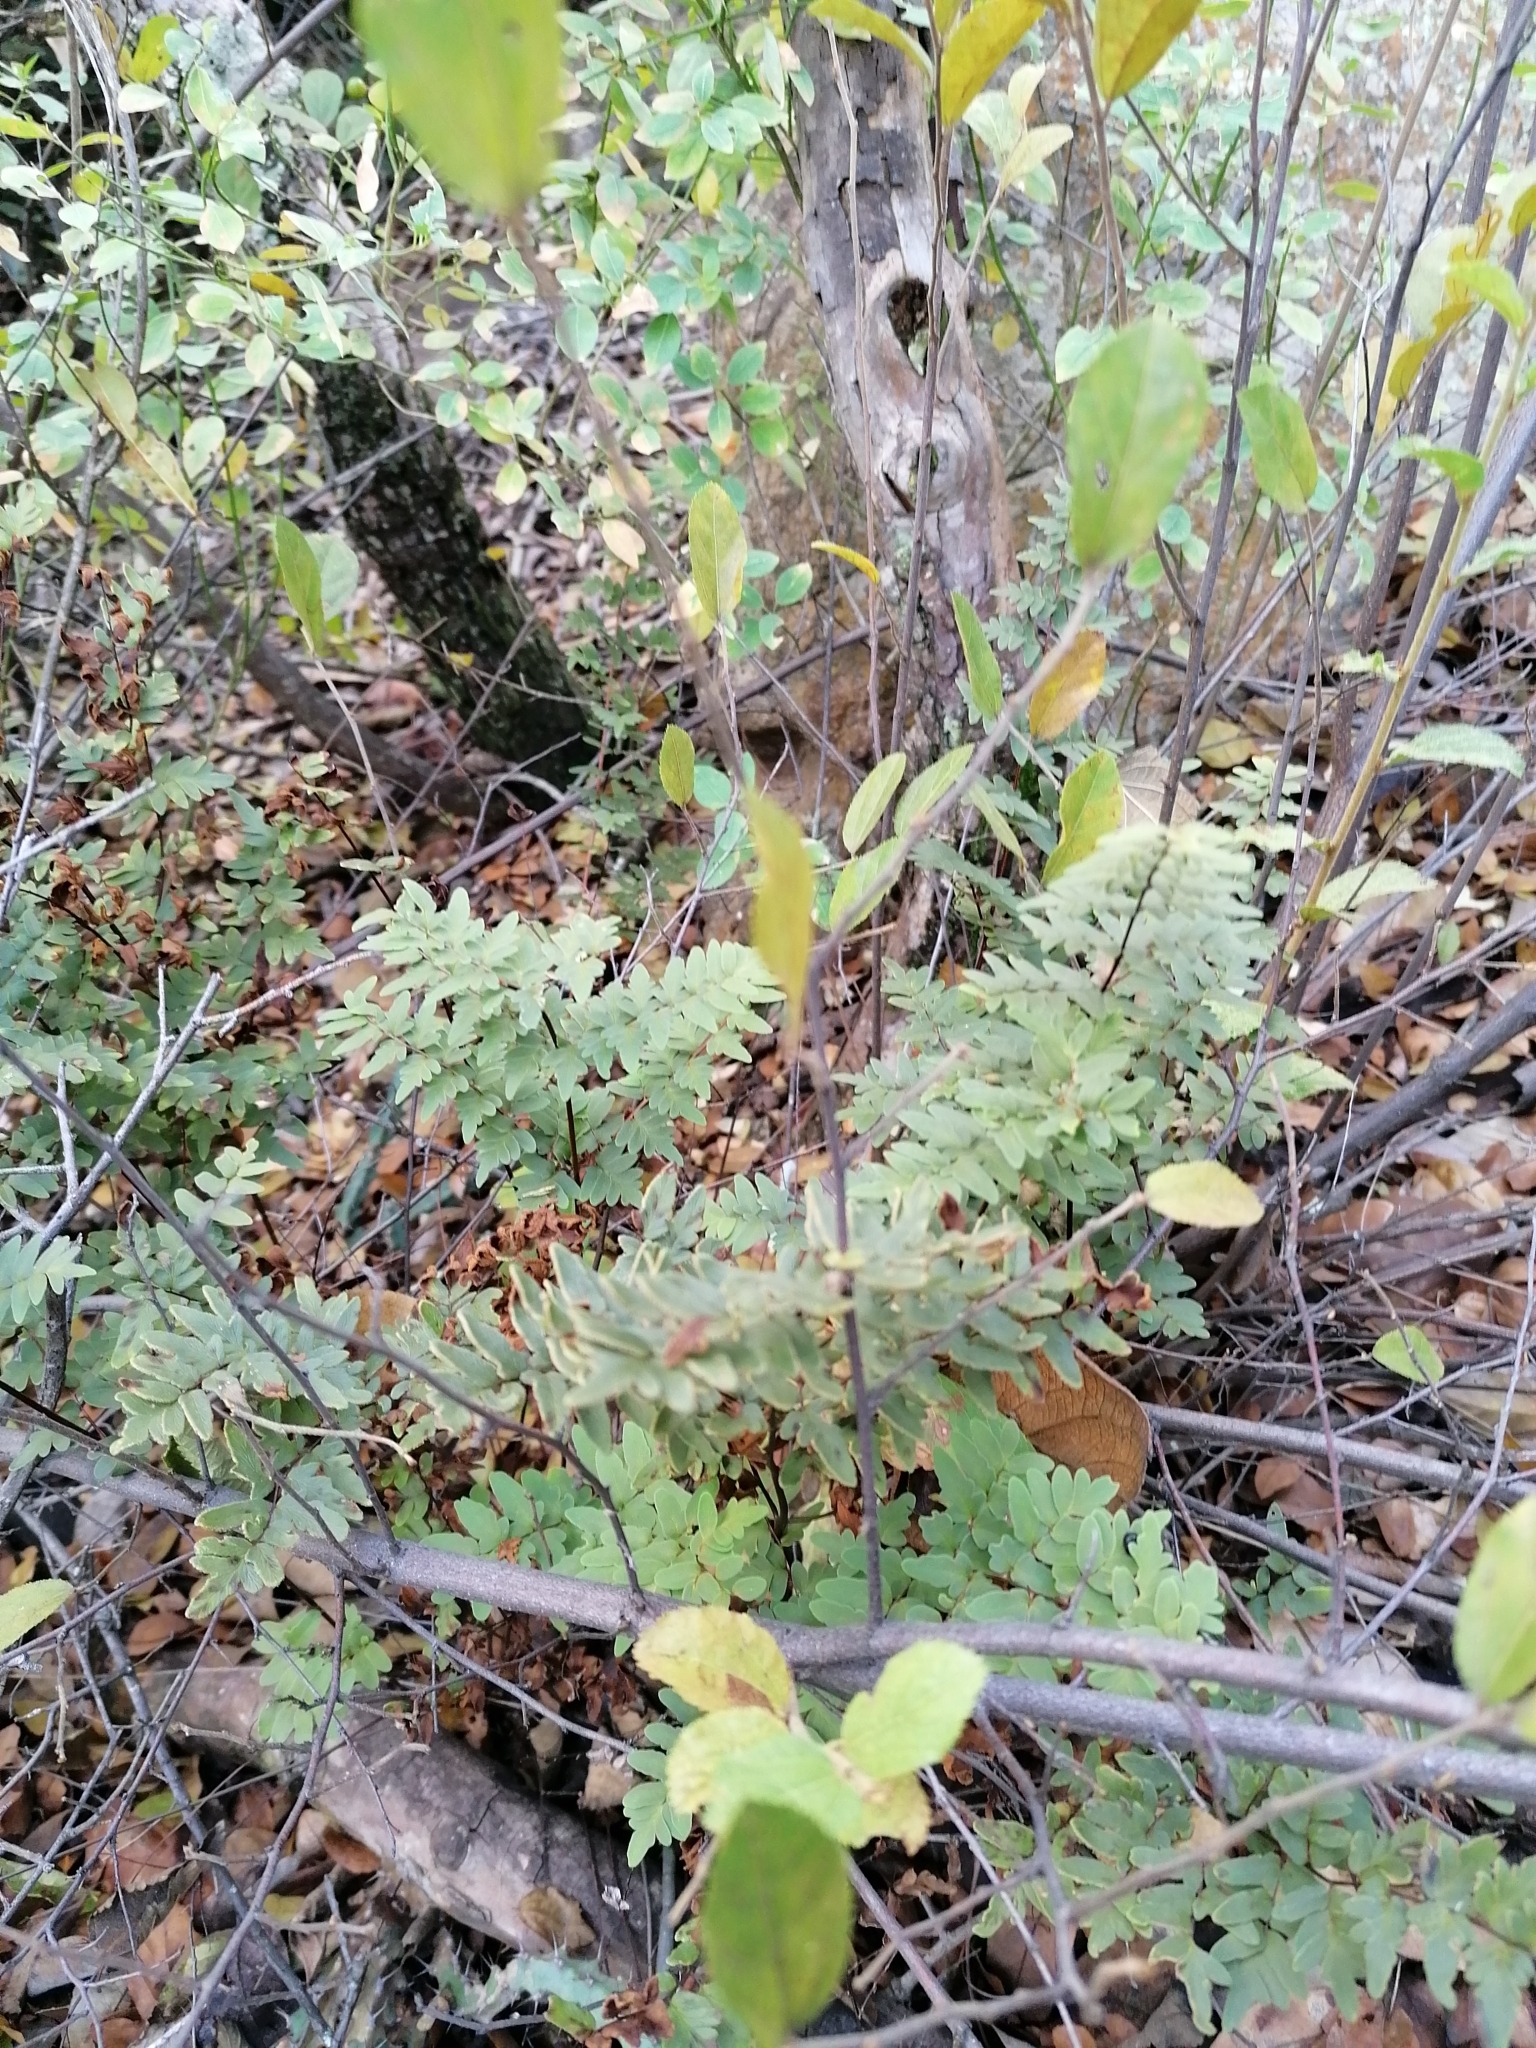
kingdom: Plantae
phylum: Tracheophyta
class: Polypodiopsida
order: Polypodiales
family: Pteridaceae
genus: Cheilanthes
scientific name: Cheilanthes viridis
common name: Green cliffbrake
